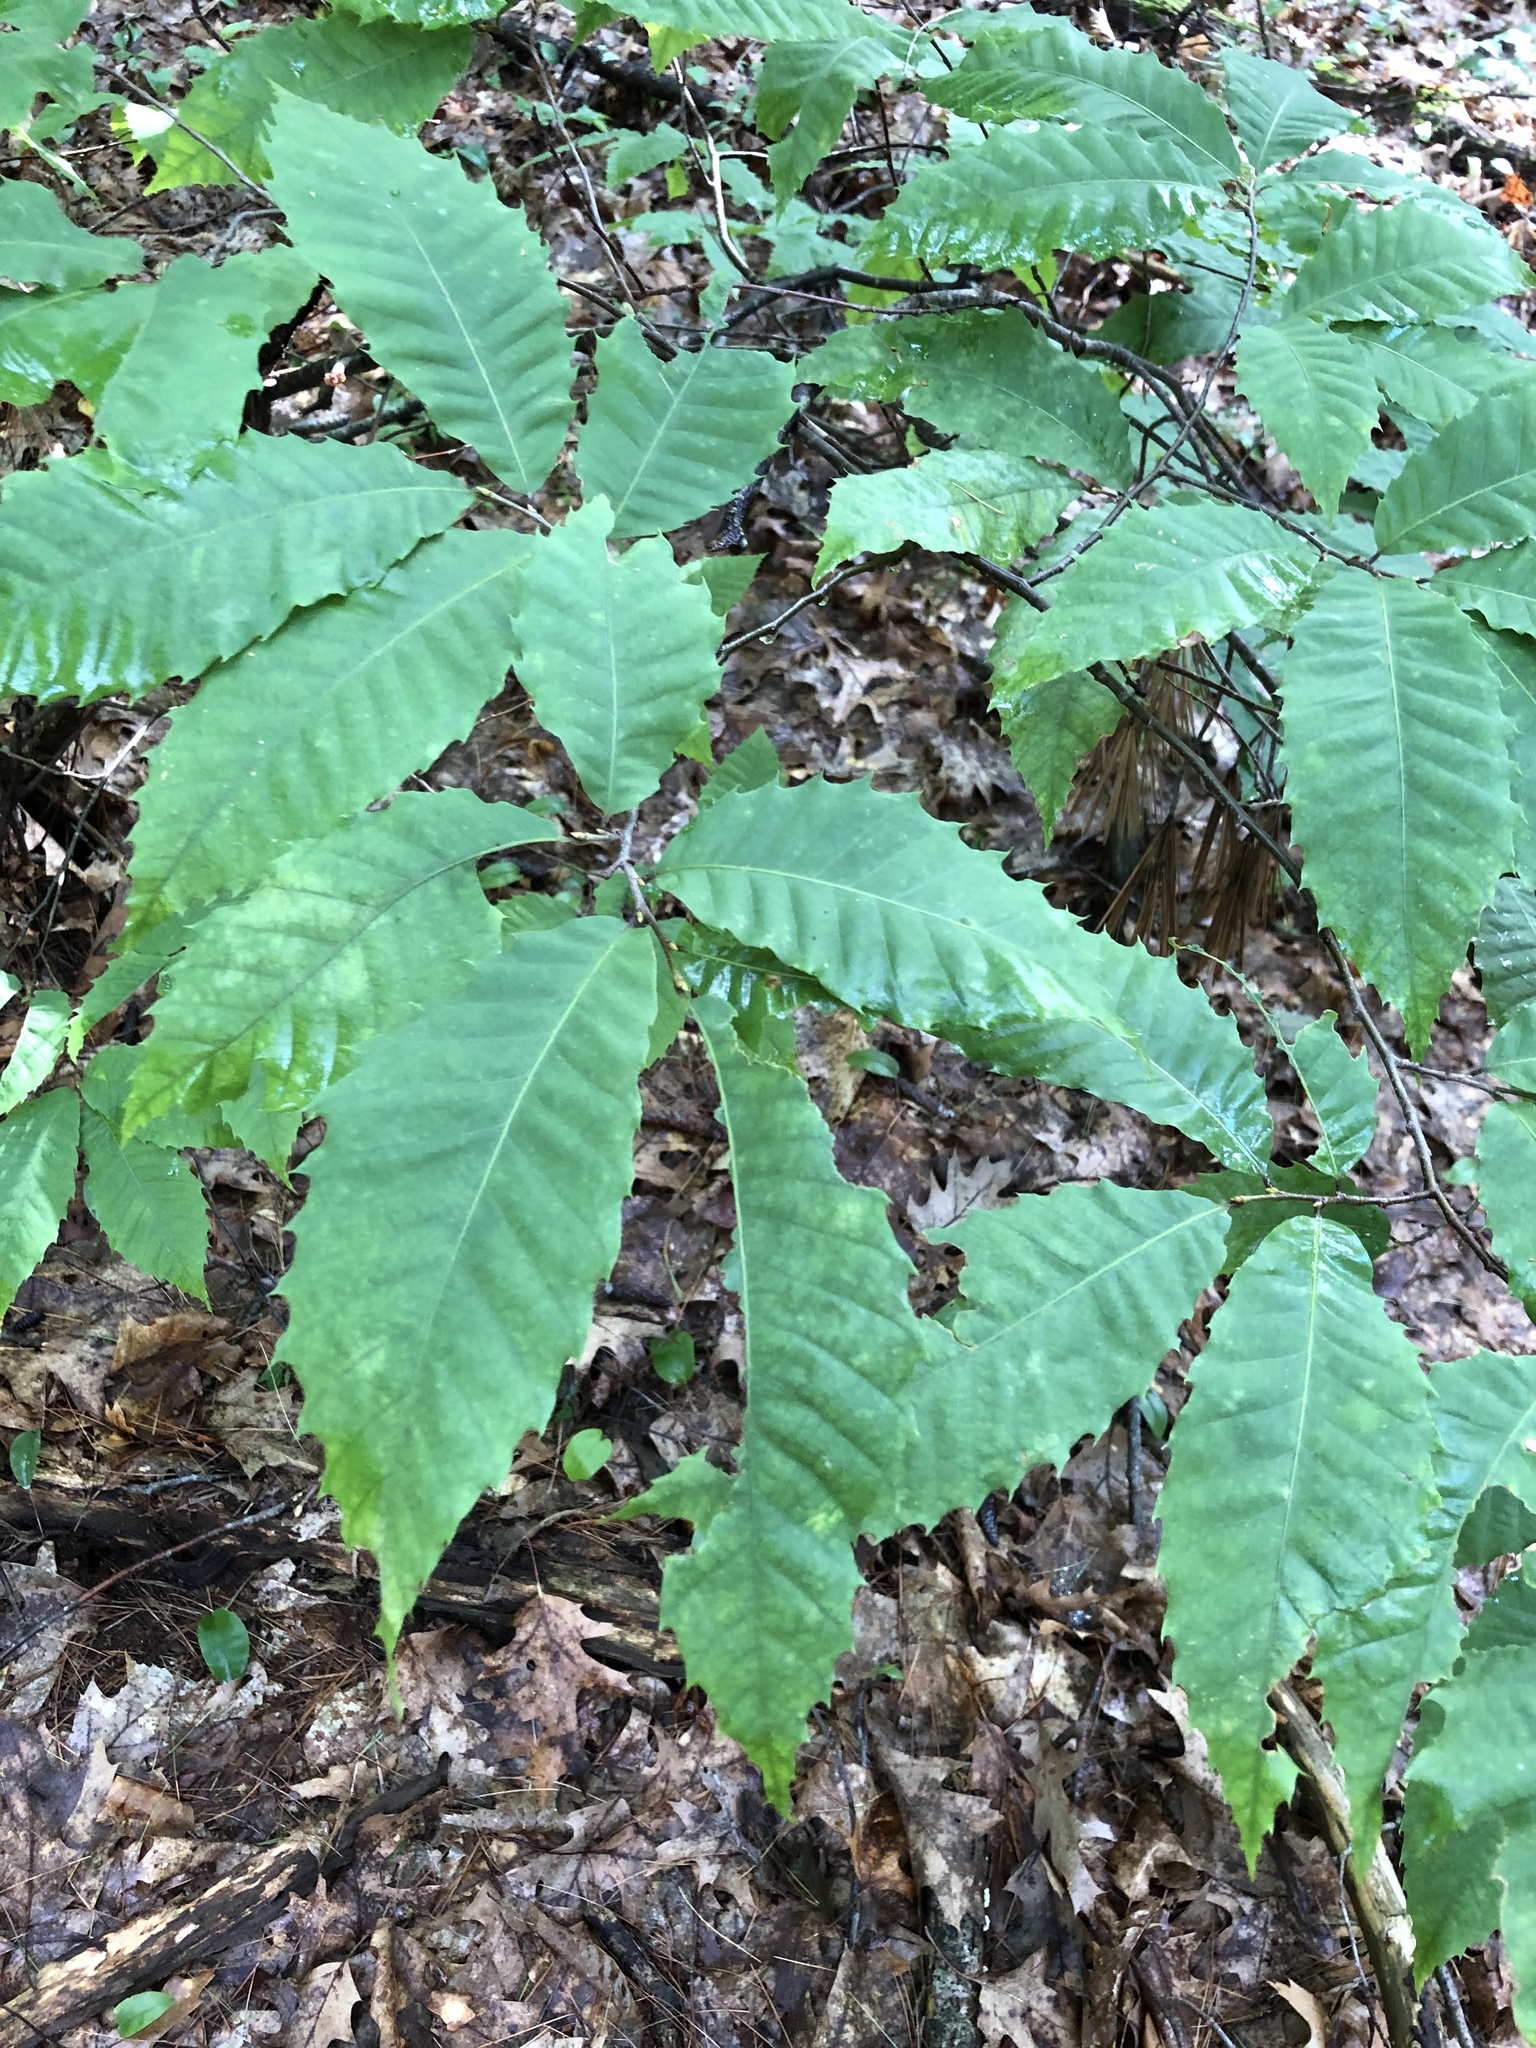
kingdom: Plantae
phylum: Tracheophyta
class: Magnoliopsida
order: Fagales
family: Fagaceae
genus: Castanea
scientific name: Castanea dentata
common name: American chestnut
